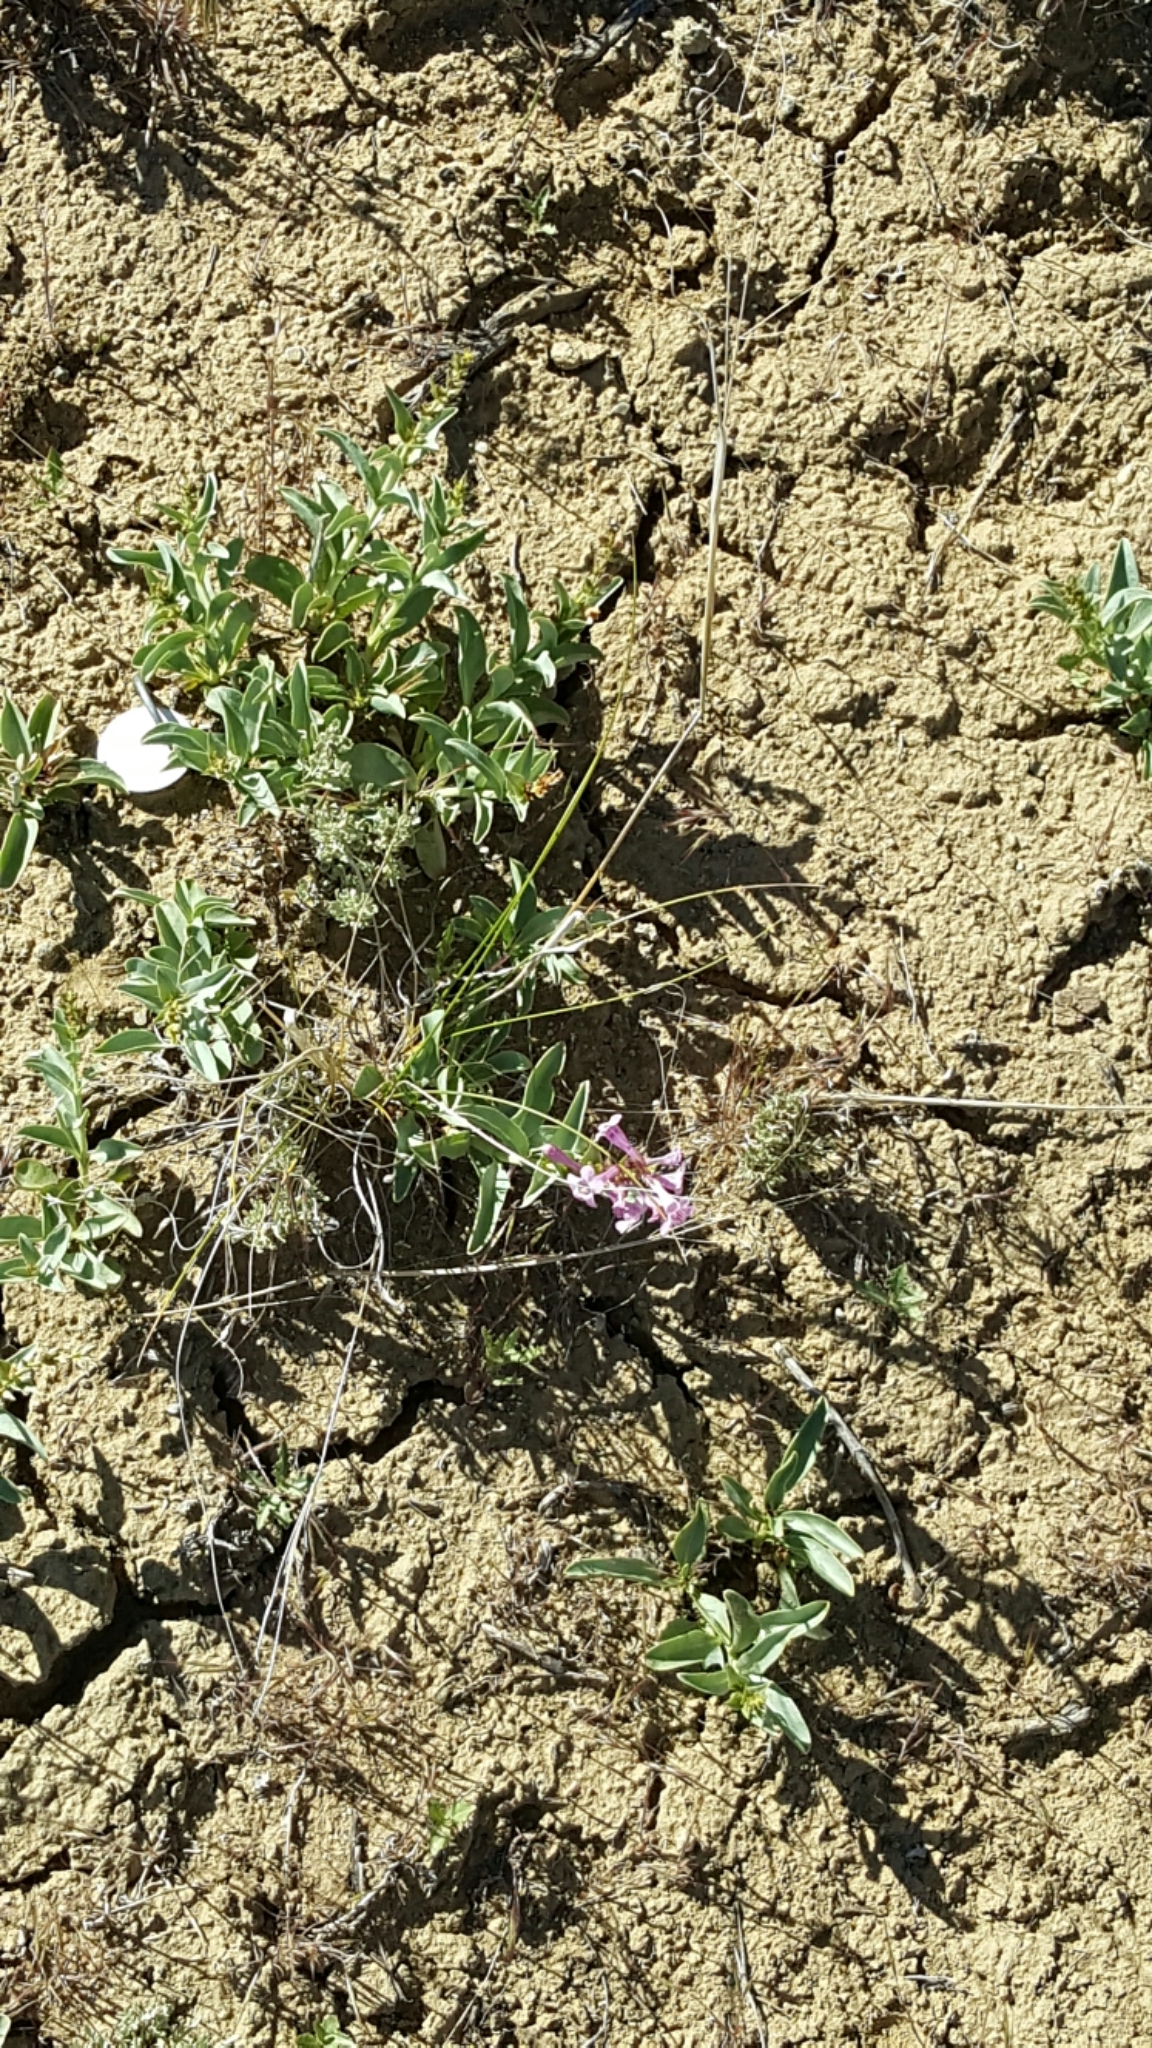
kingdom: Plantae
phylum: Tracheophyta
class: Magnoliopsida
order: Lamiales
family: Plantaginaceae
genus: Penstemon
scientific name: Penstemon flowersii
